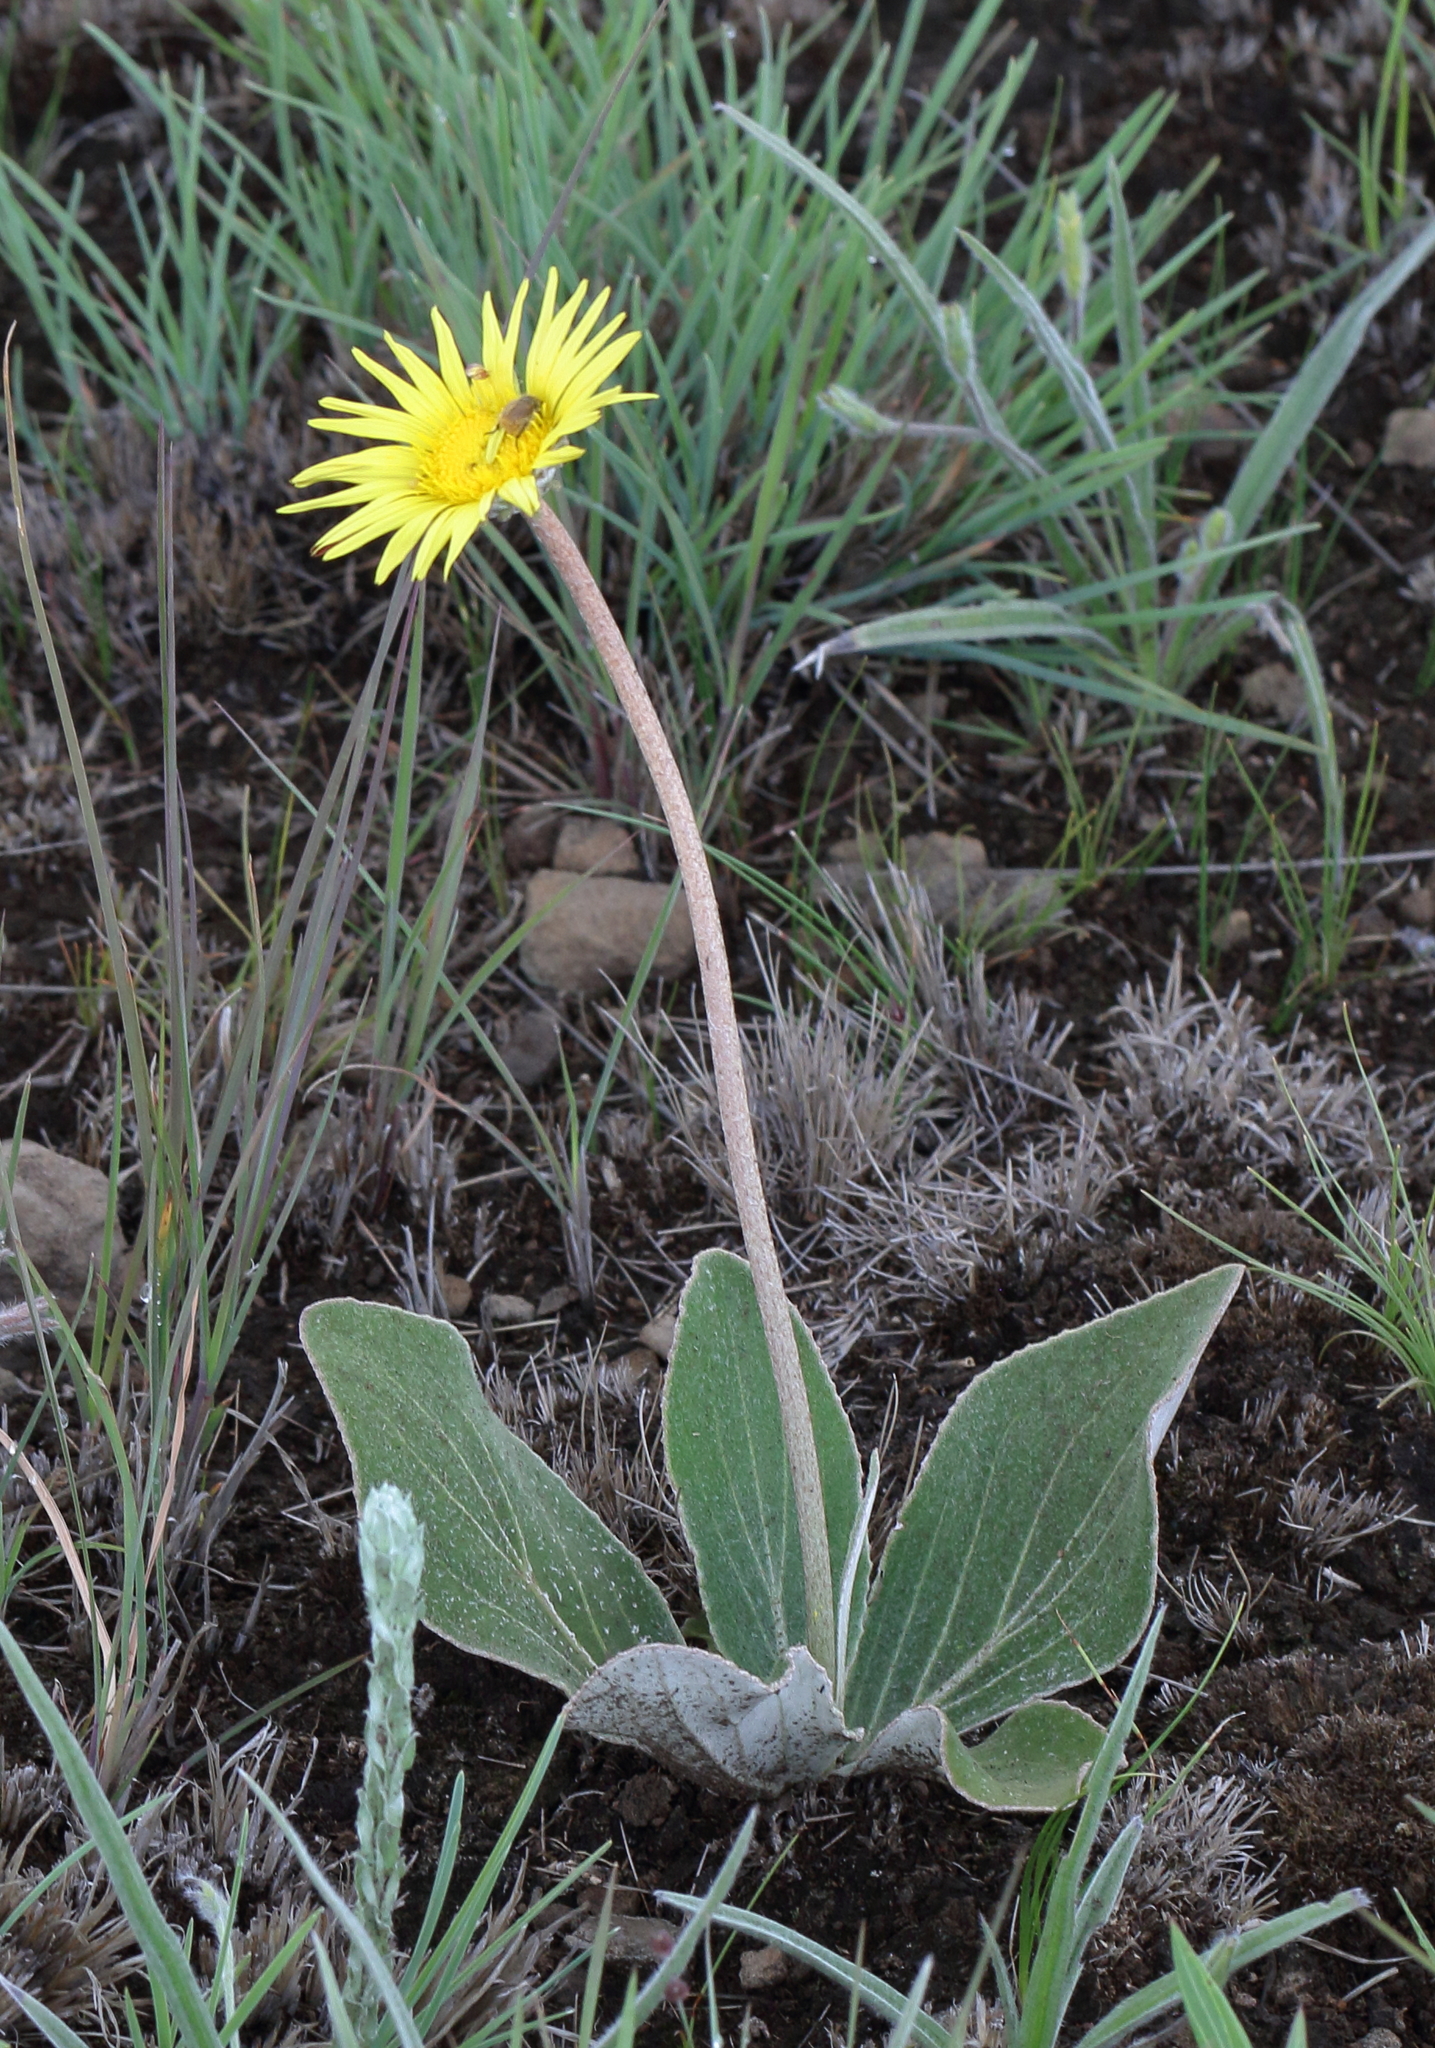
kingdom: Plantae
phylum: Tracheophyta
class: Magnoliopsida
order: Asterales
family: Asteraceae
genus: Haplocarpha
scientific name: Haplocarpha scaposa
